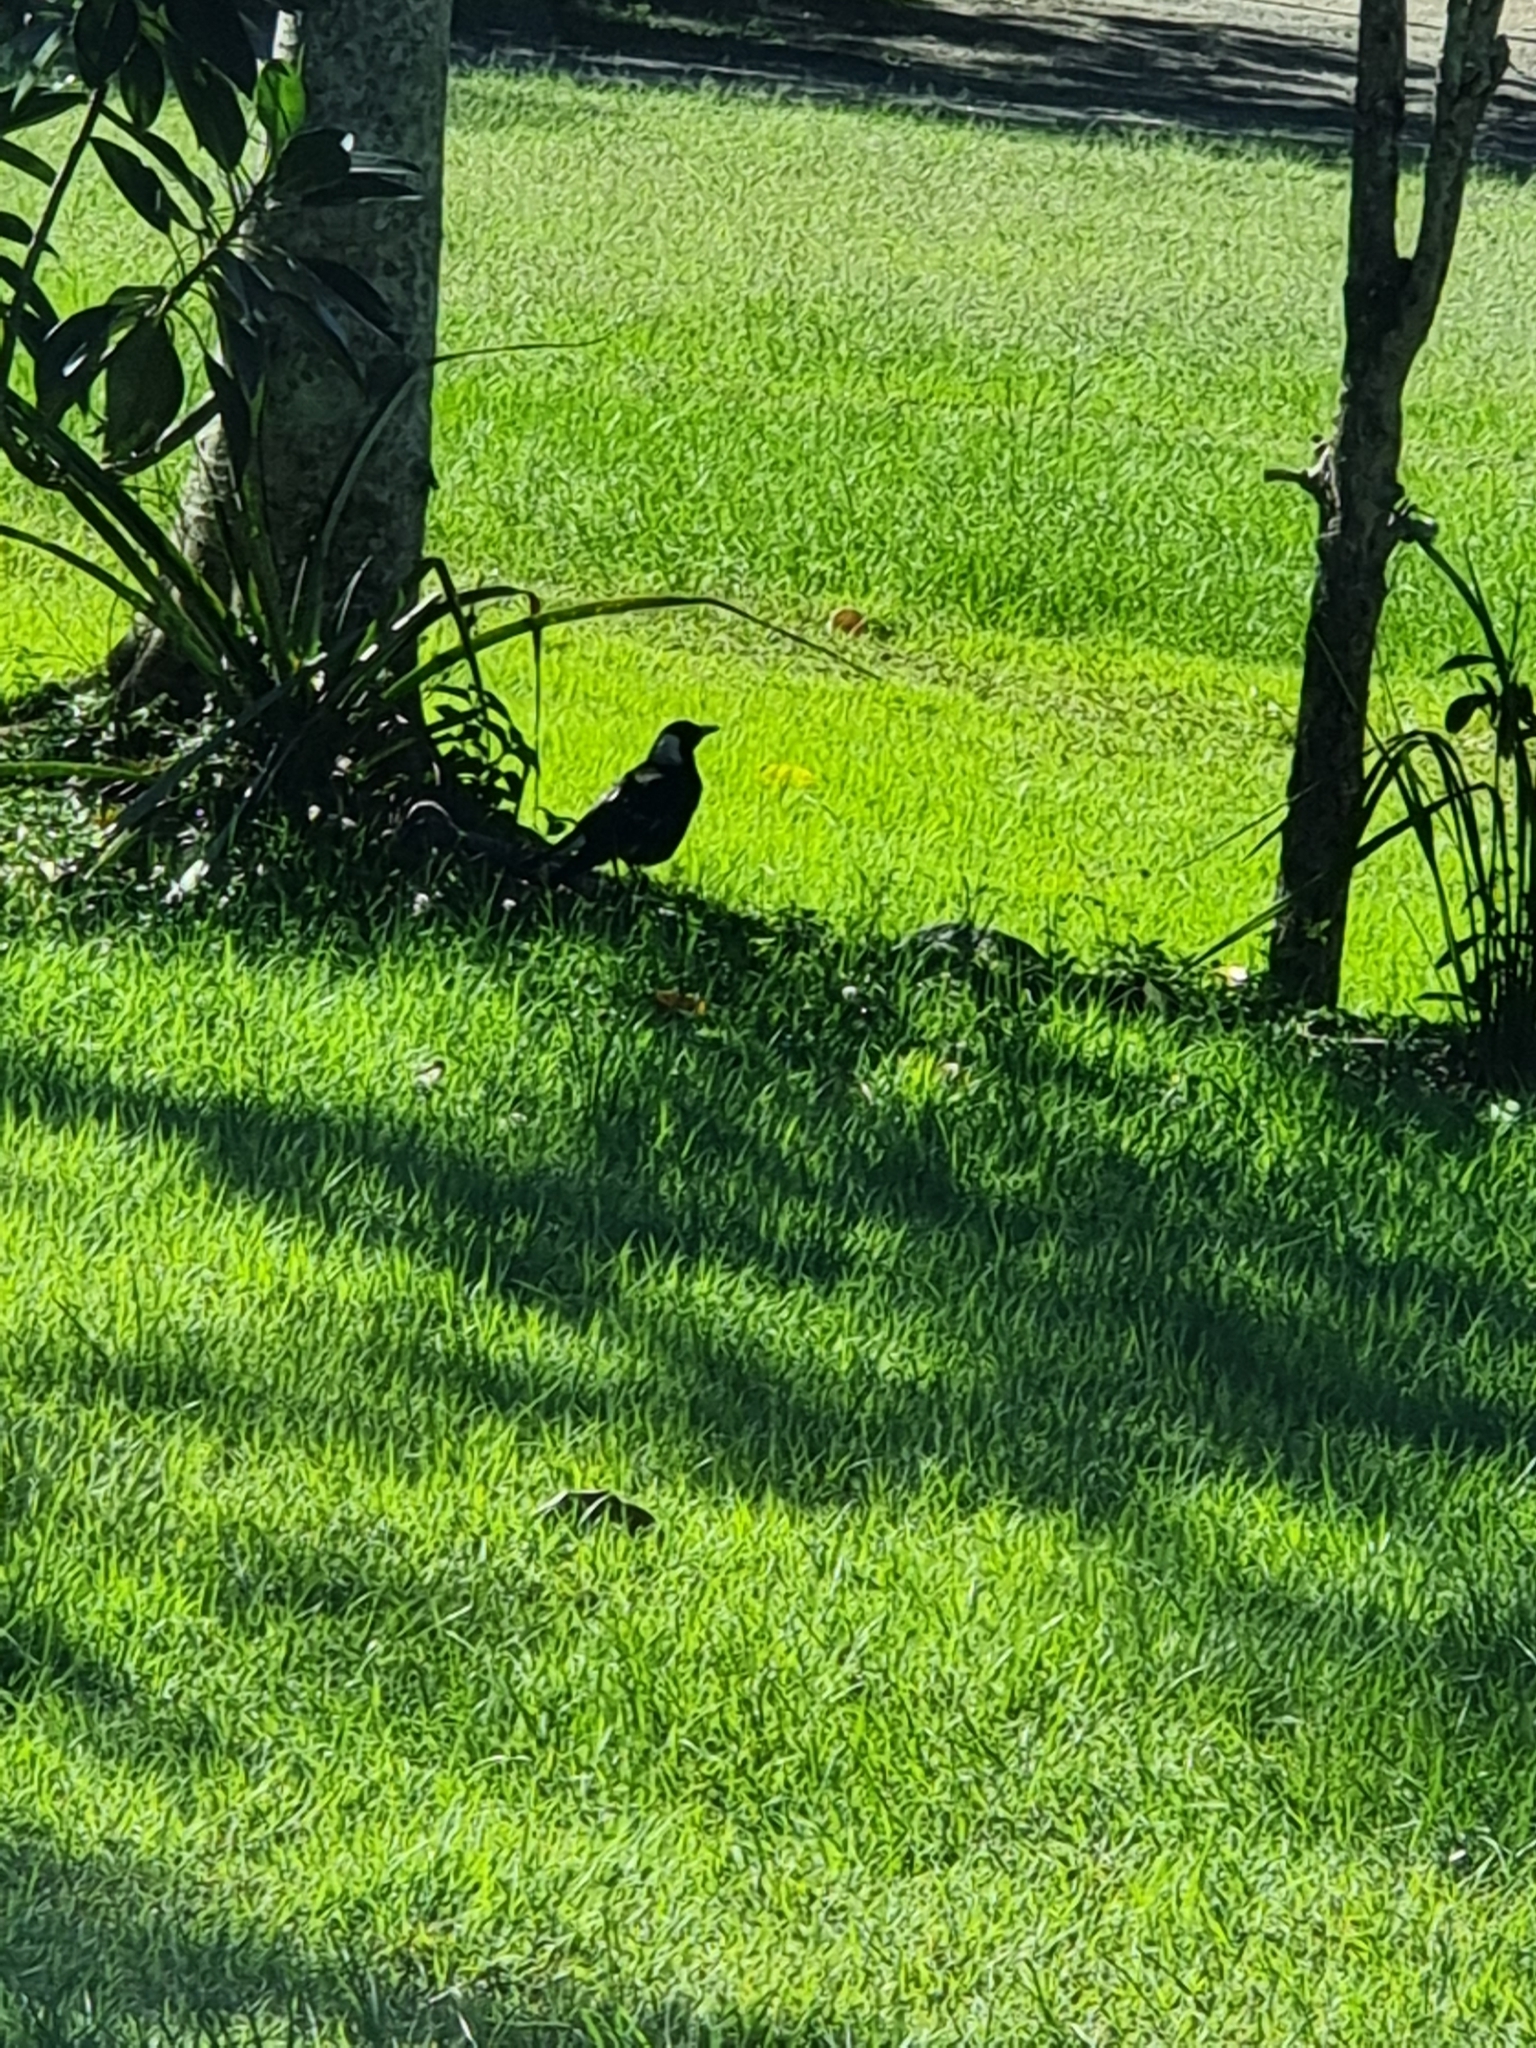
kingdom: Animalia
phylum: Chordata
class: Aves
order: Passeriformes
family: Cracticidae
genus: Gymnorhina
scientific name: Gymnorhina tibicen
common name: Australian magpie
